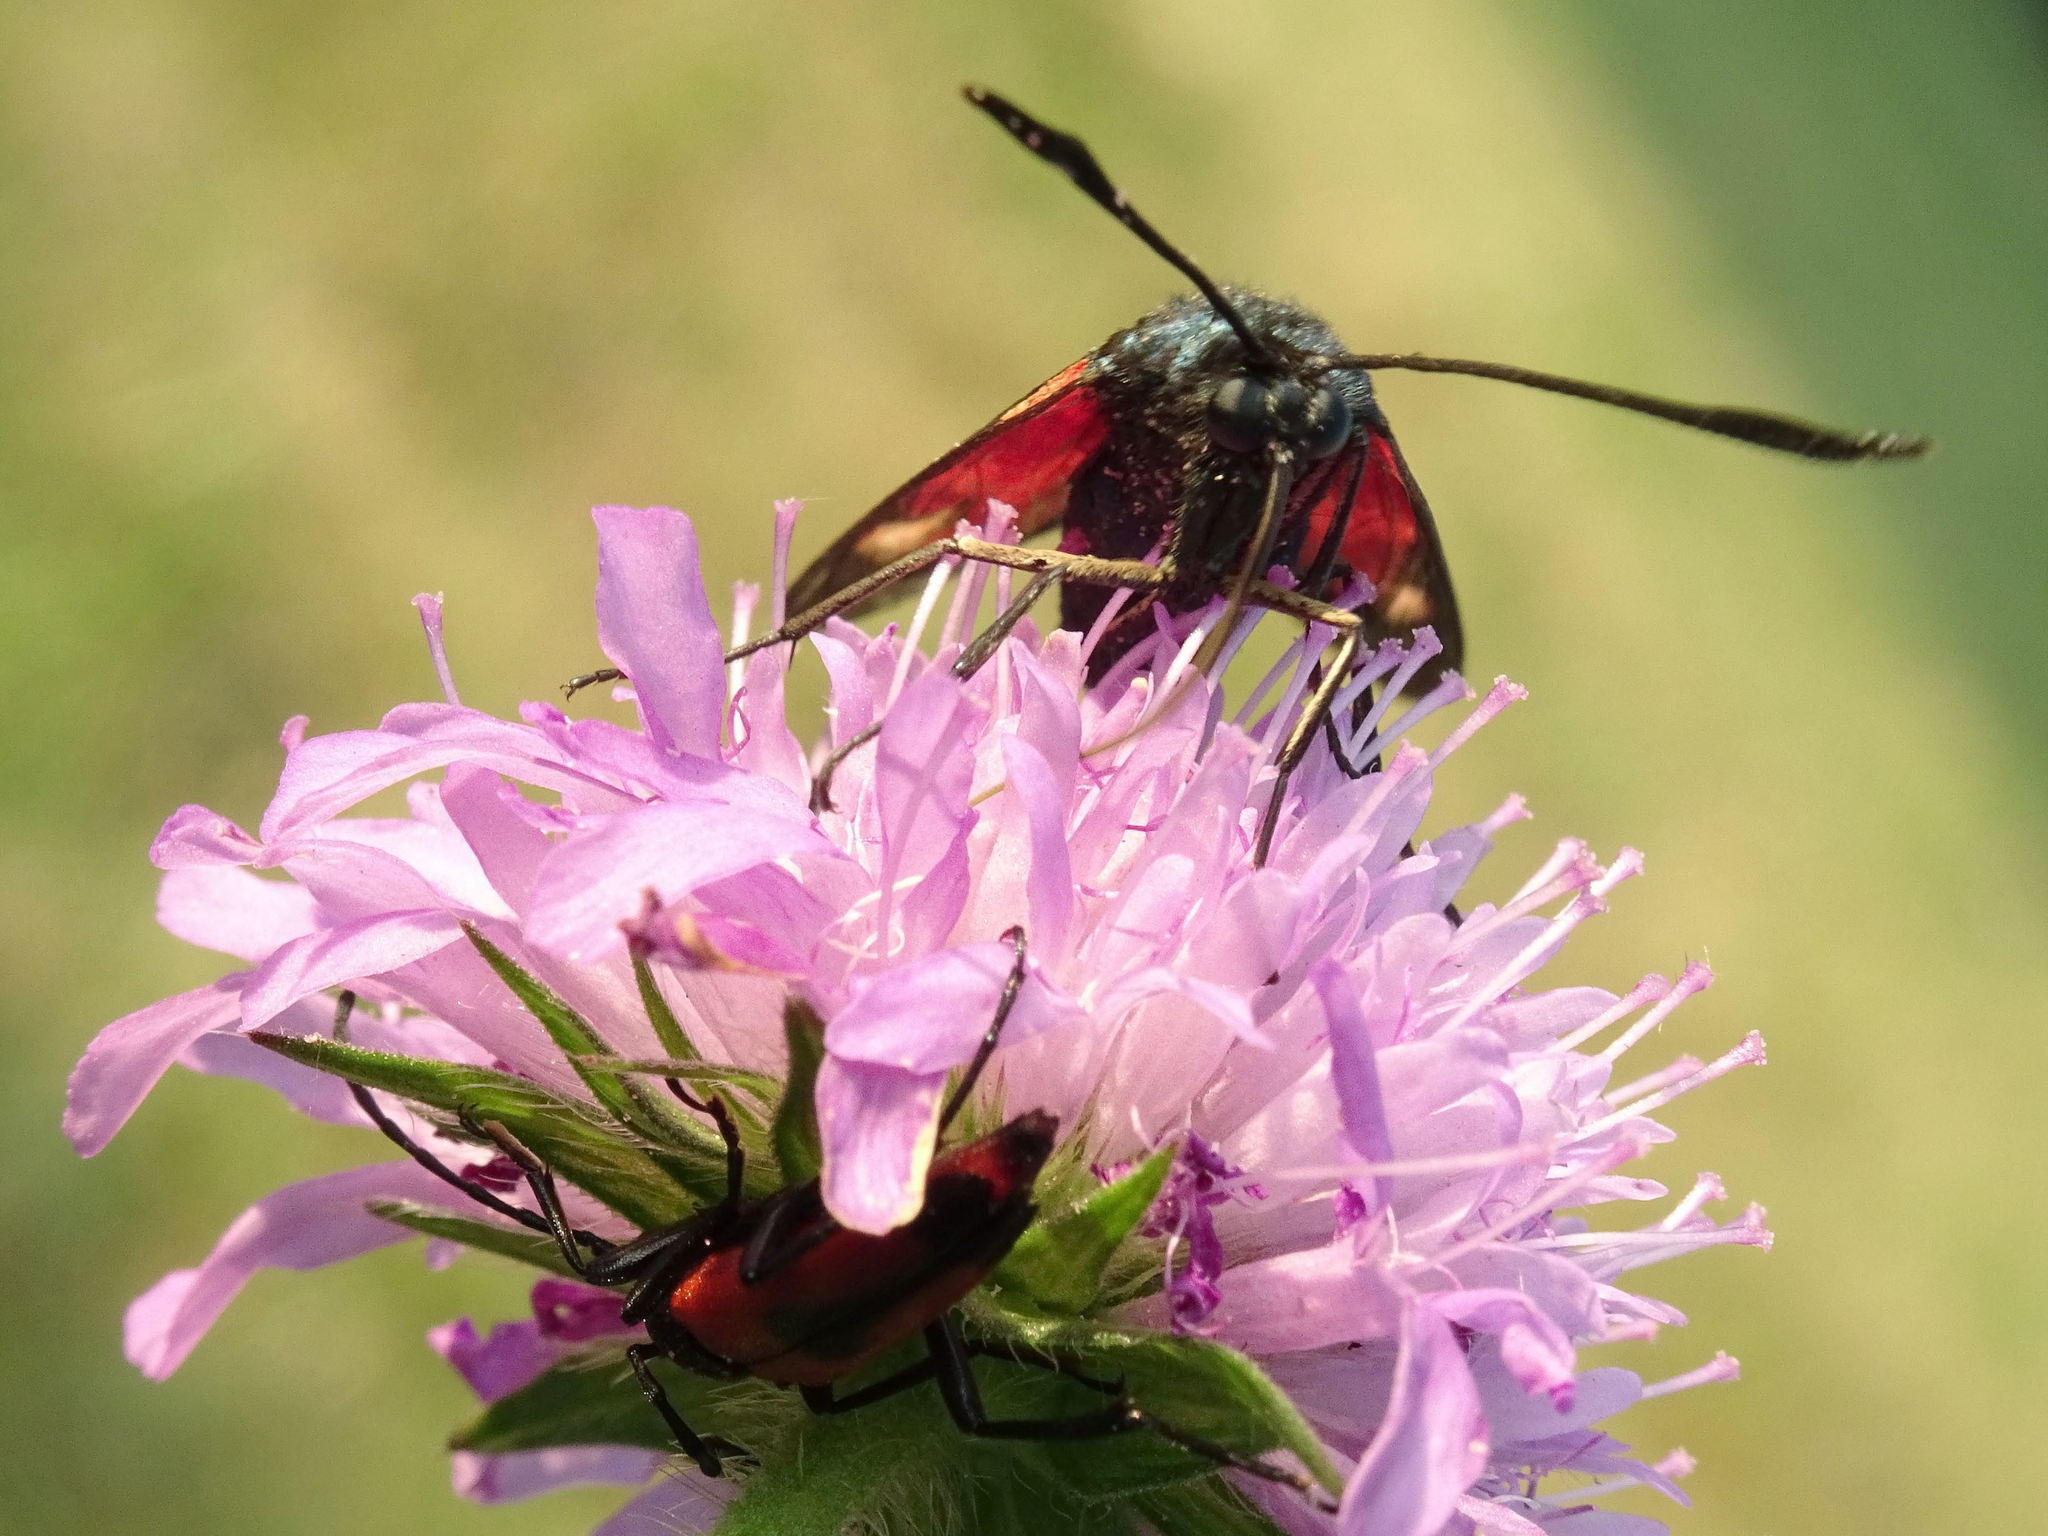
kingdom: Animalia
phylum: Arthropoda
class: Insecta
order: Lepidoptera
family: Zygaenidae
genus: Zygaena
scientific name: Zygaena lonicerae
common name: Narrow-bordered five-spot burnet
